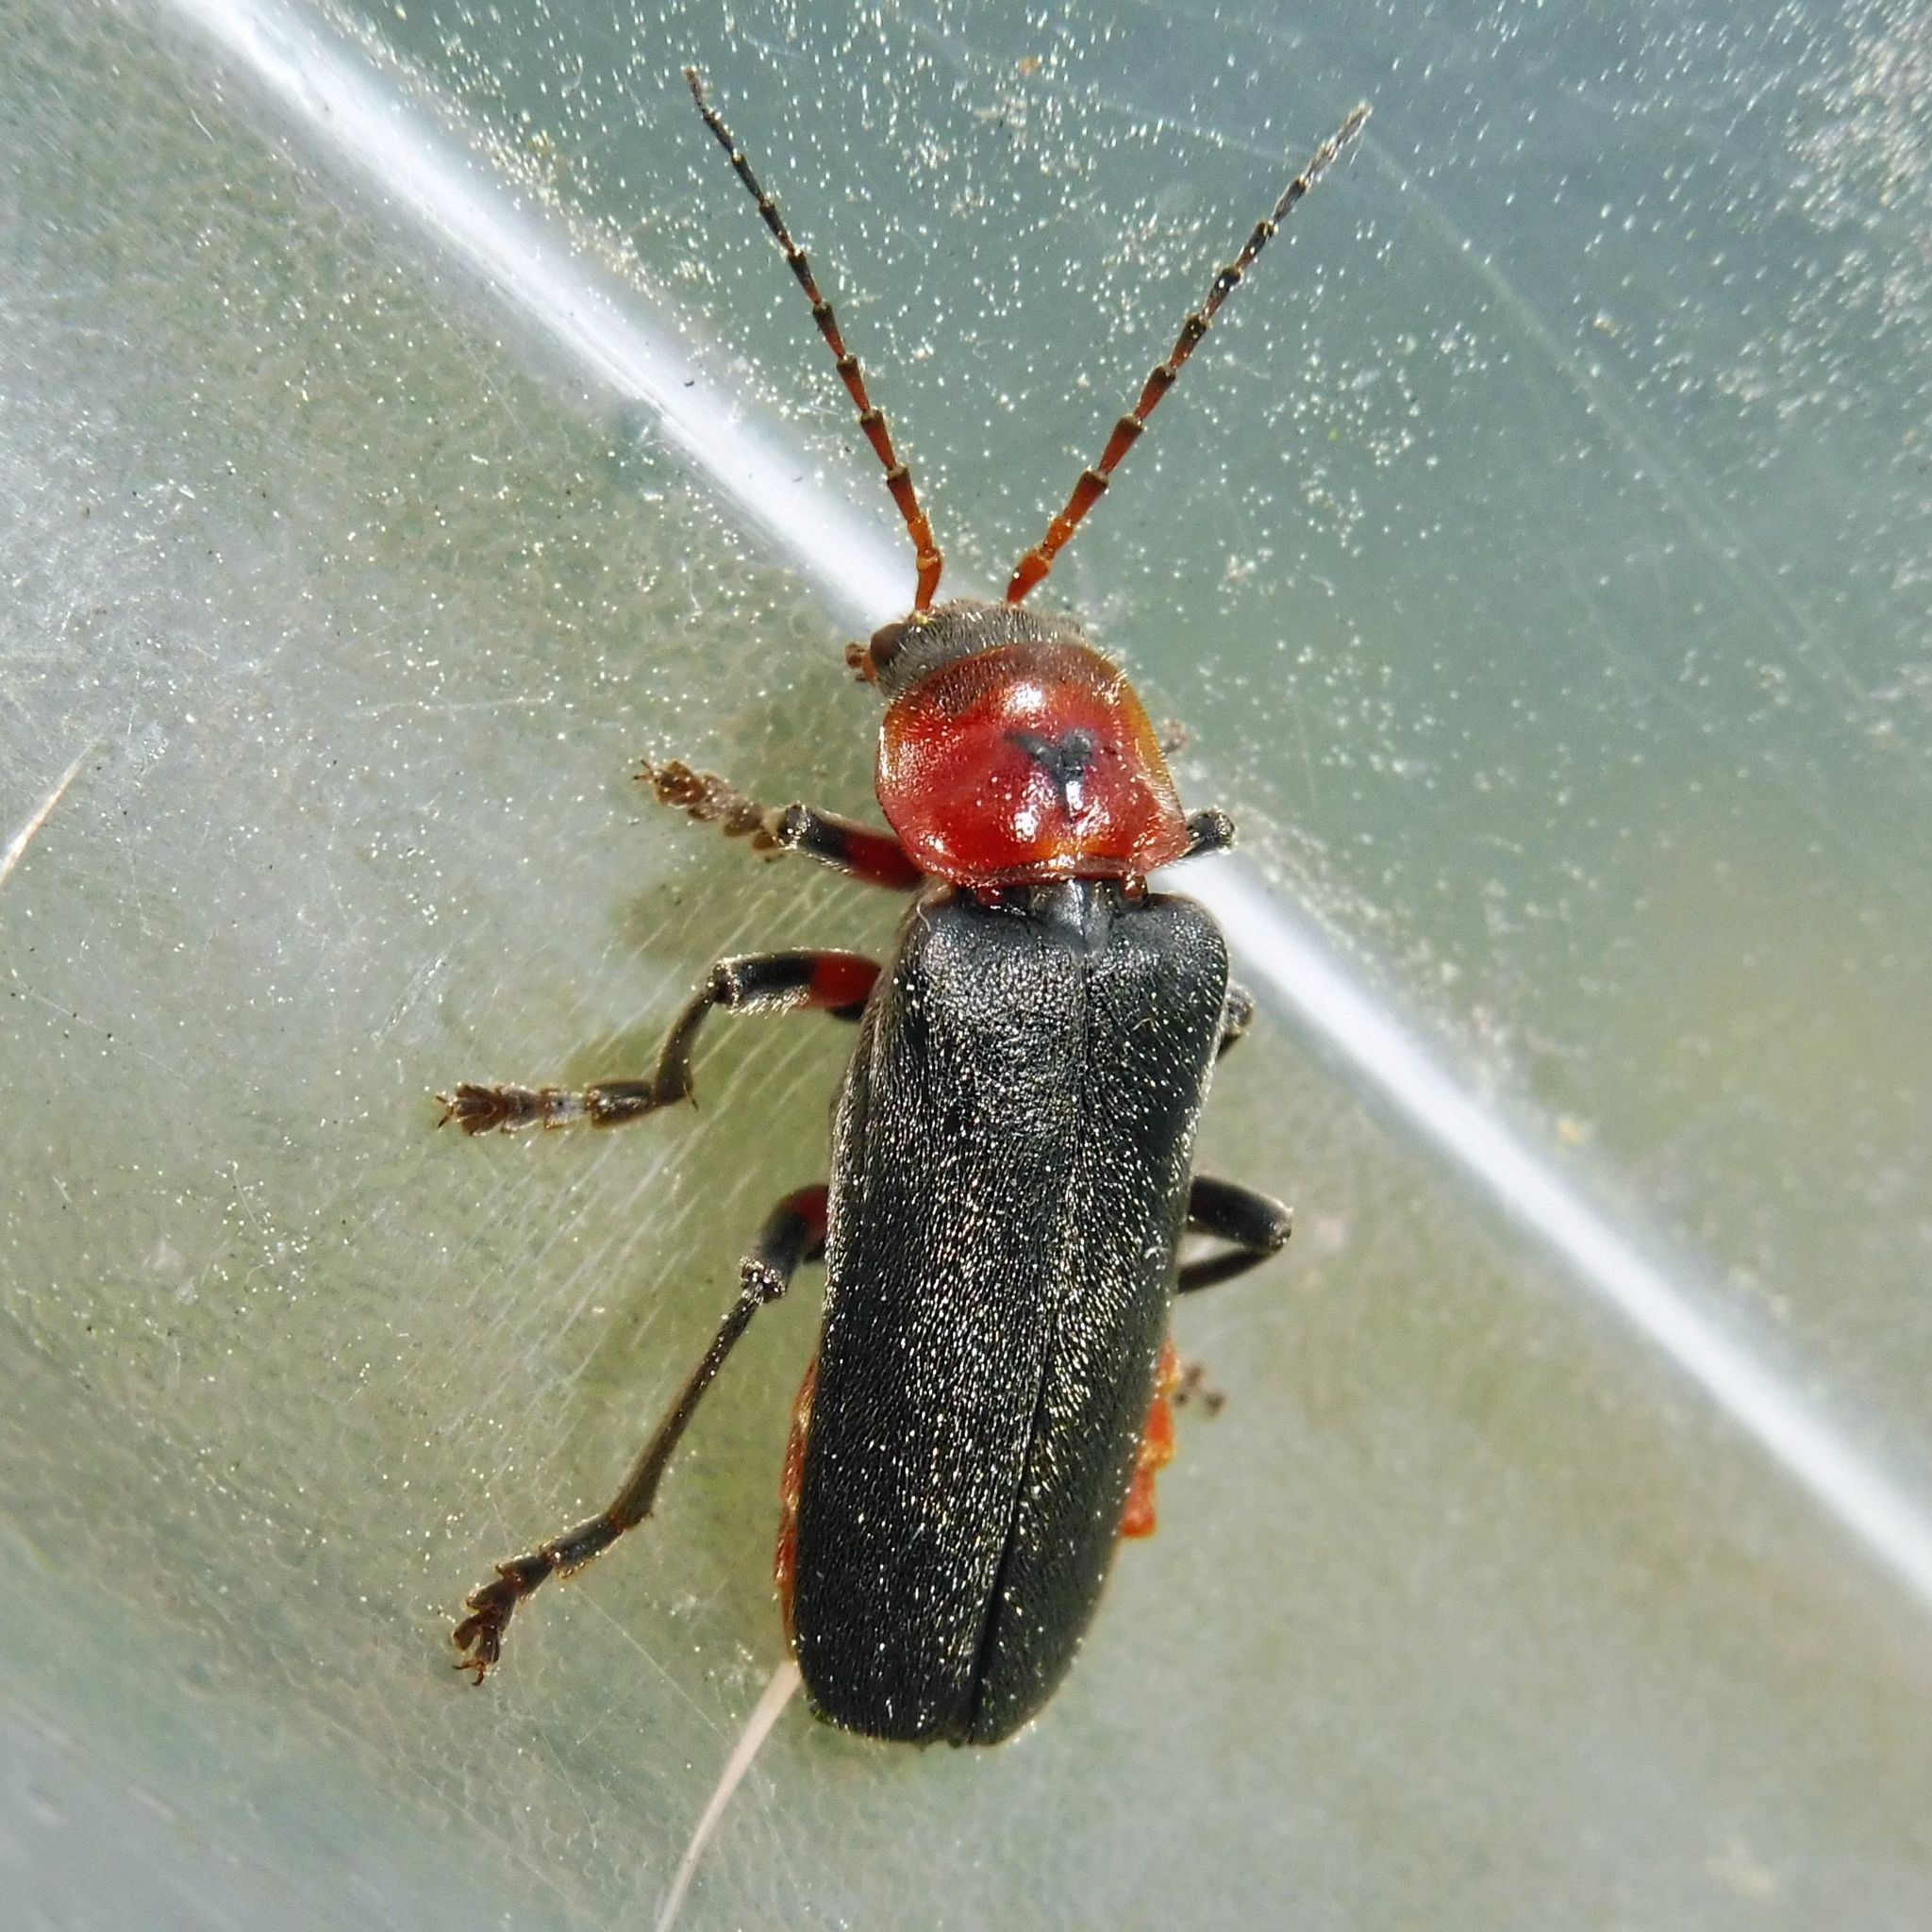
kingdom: Animalia
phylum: Arthropoda
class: Insecta
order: Coleoptera
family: Cantharidae
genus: Cantharis
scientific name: Cantharis rustica
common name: Soldier beetle
